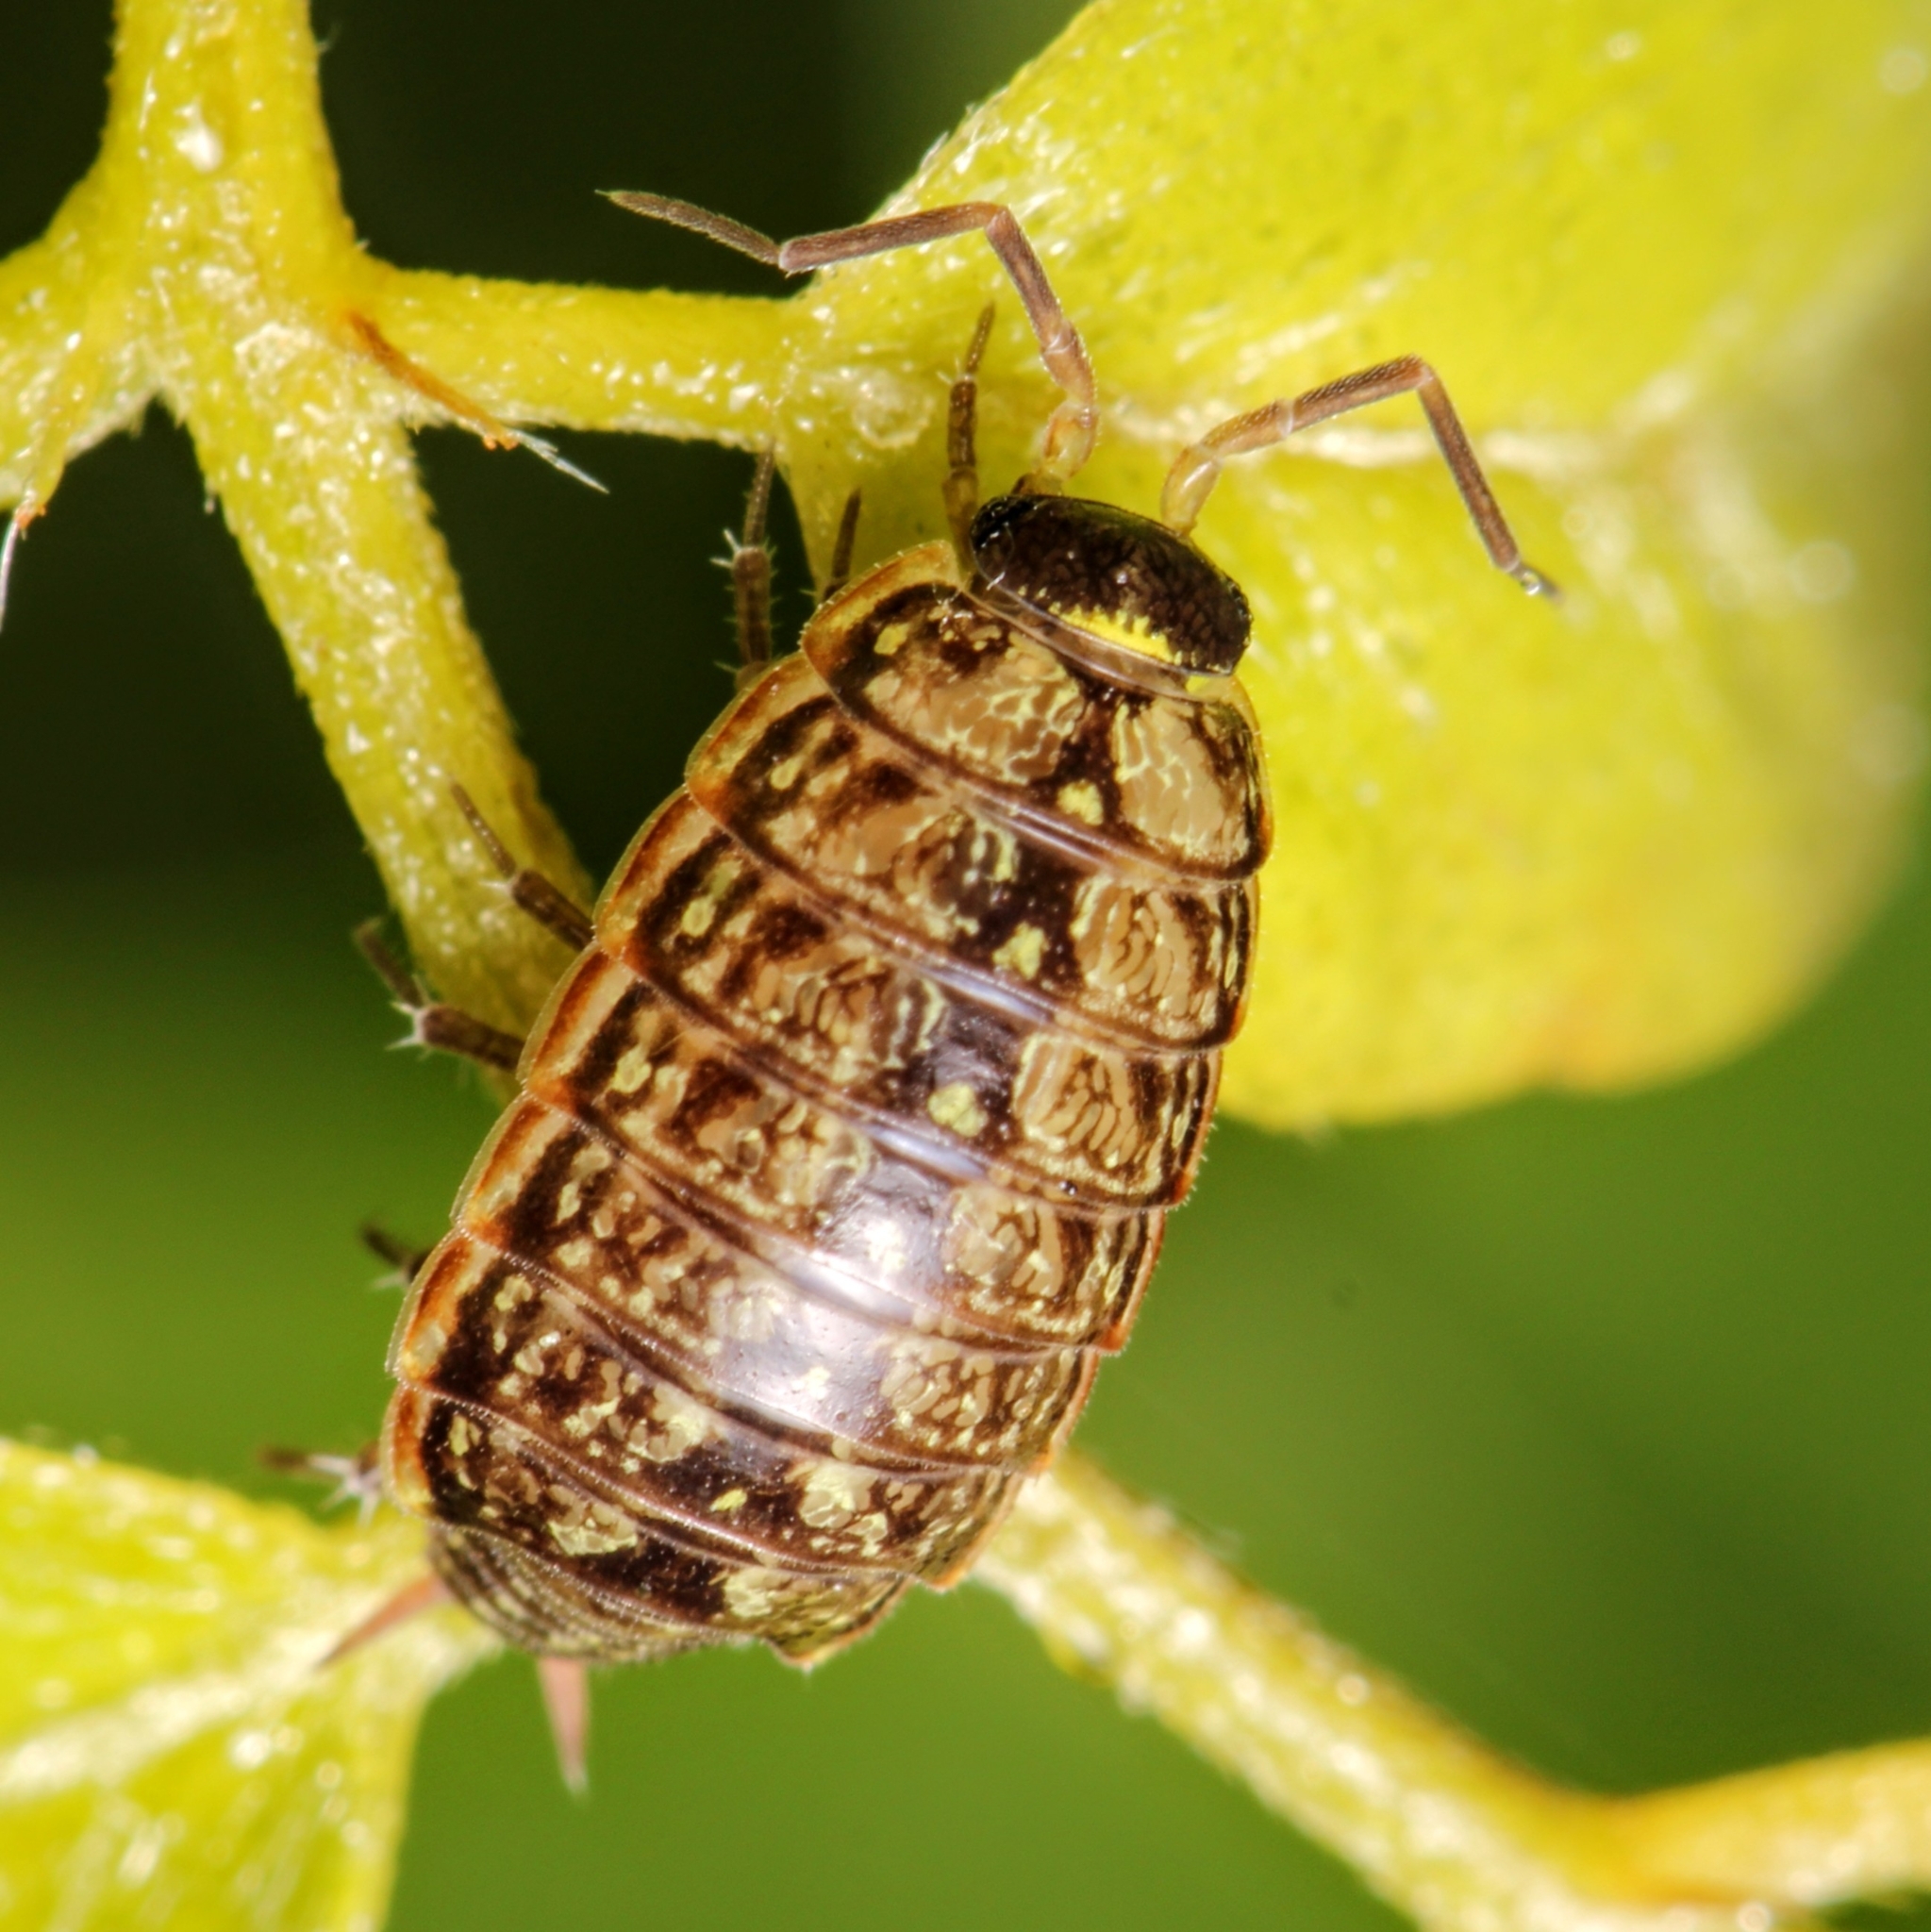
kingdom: Animalia
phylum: Arthropoda
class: Malacostraca
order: Isopoda
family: Philosciidae
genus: Philoscia
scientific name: Philoscia muscorum
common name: Common striped woodlouse
